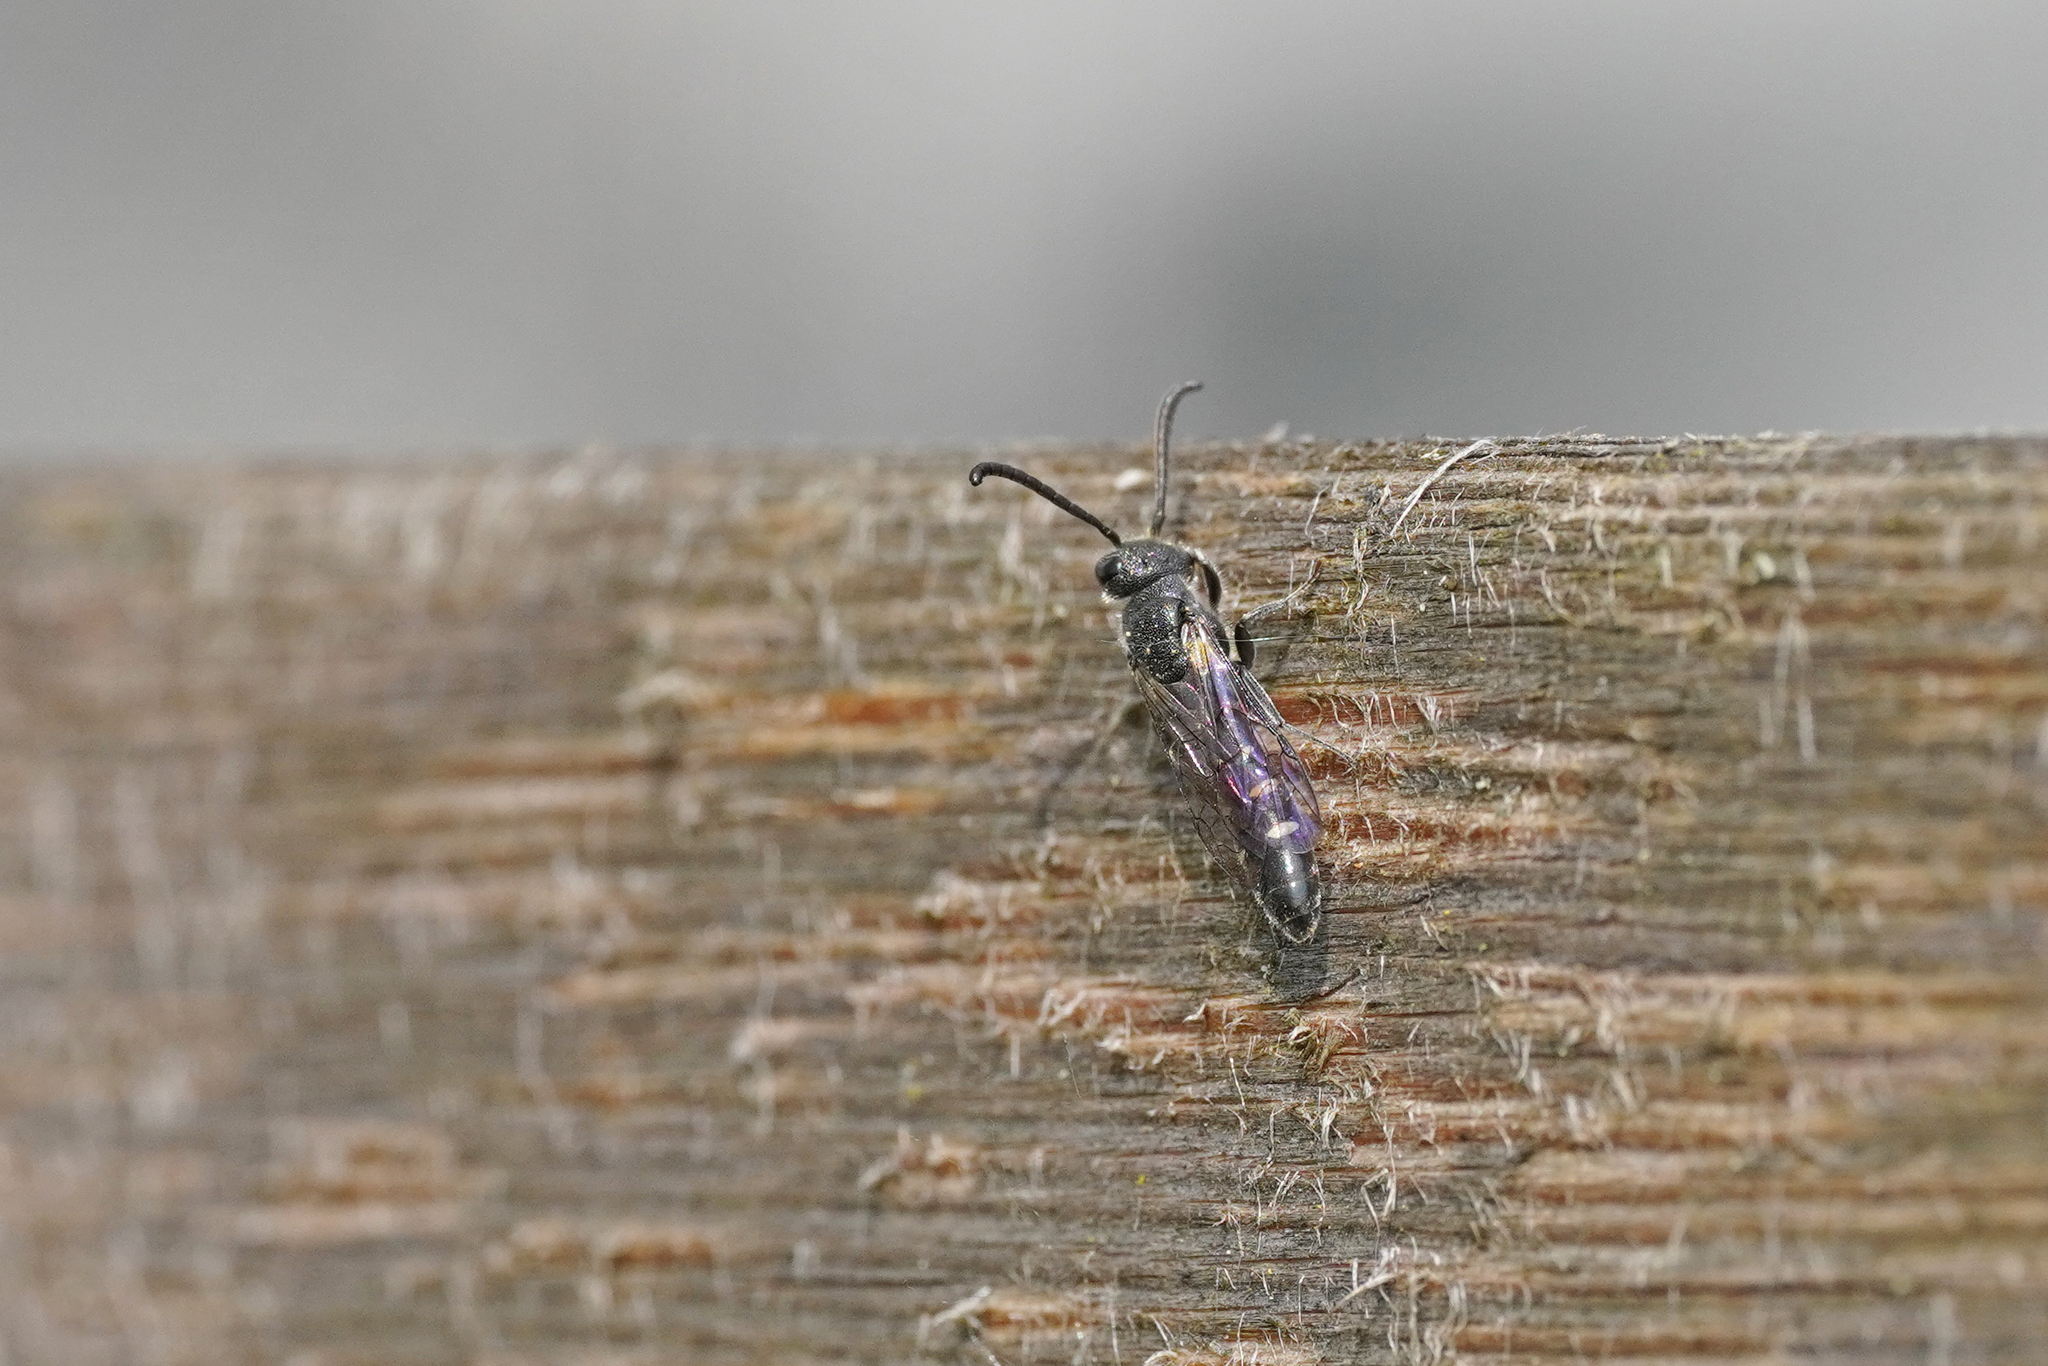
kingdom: Animalia
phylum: Arthropoda
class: Insecta
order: Hymenoptera
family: Sapygidae
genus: Sapyga
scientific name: Sapyga quinquepunctata
